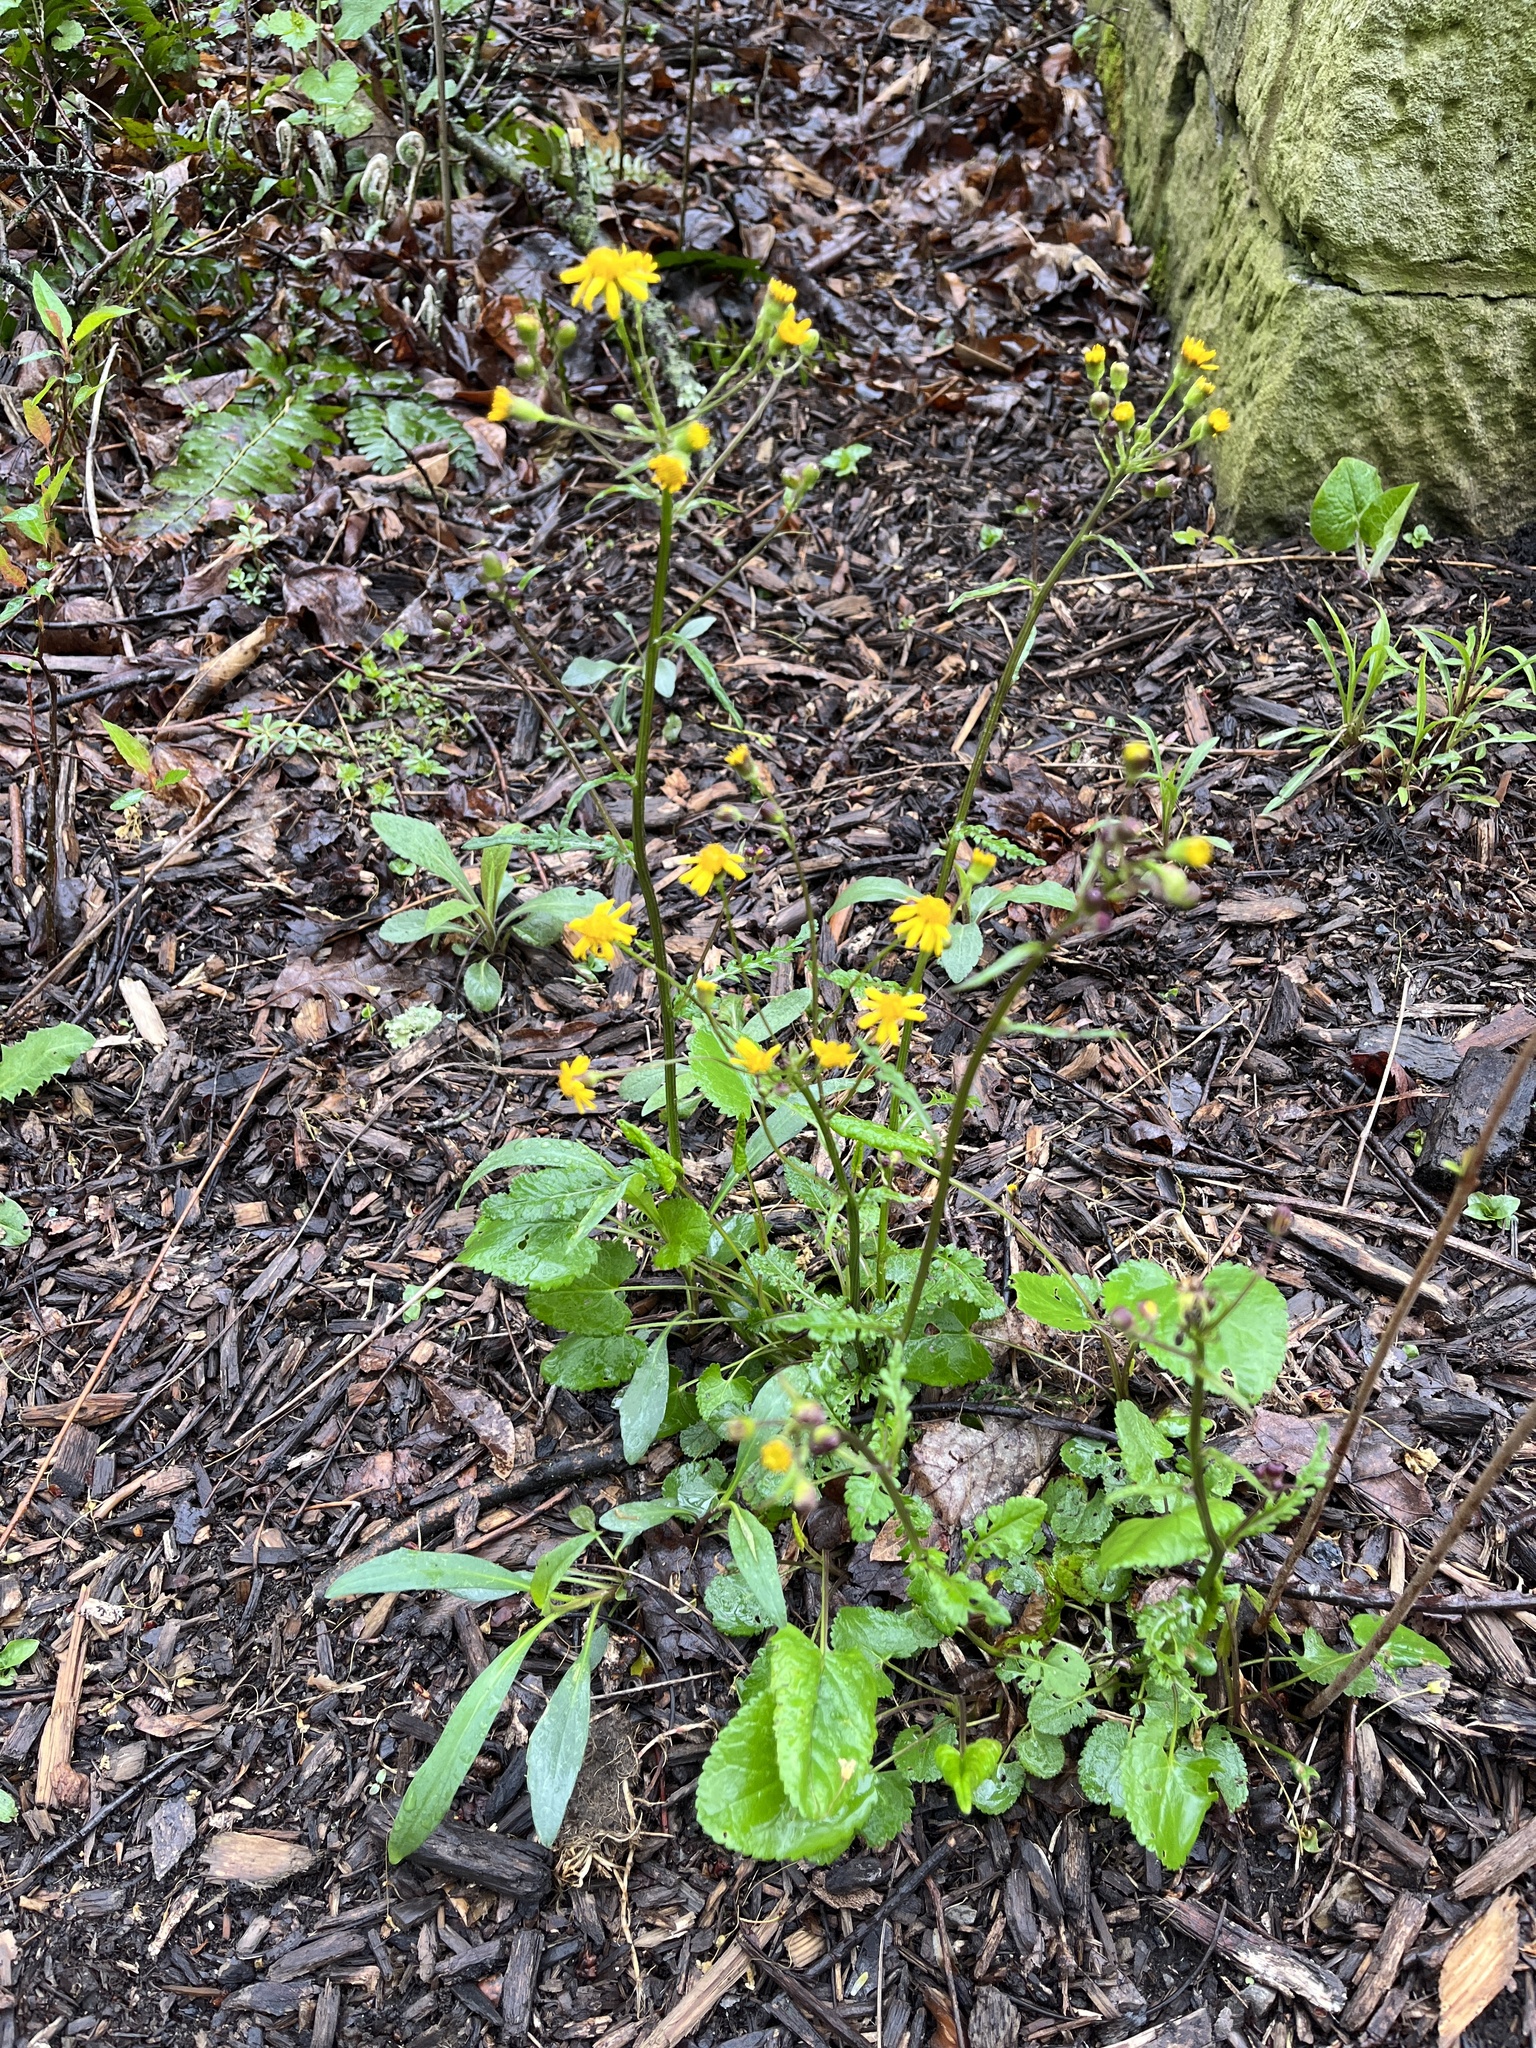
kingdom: Plantae
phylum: Tracheophyta
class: Magnoliopsida
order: Asterales
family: Asteraceae
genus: Packera
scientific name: Packera aurea
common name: Golden groundsel
